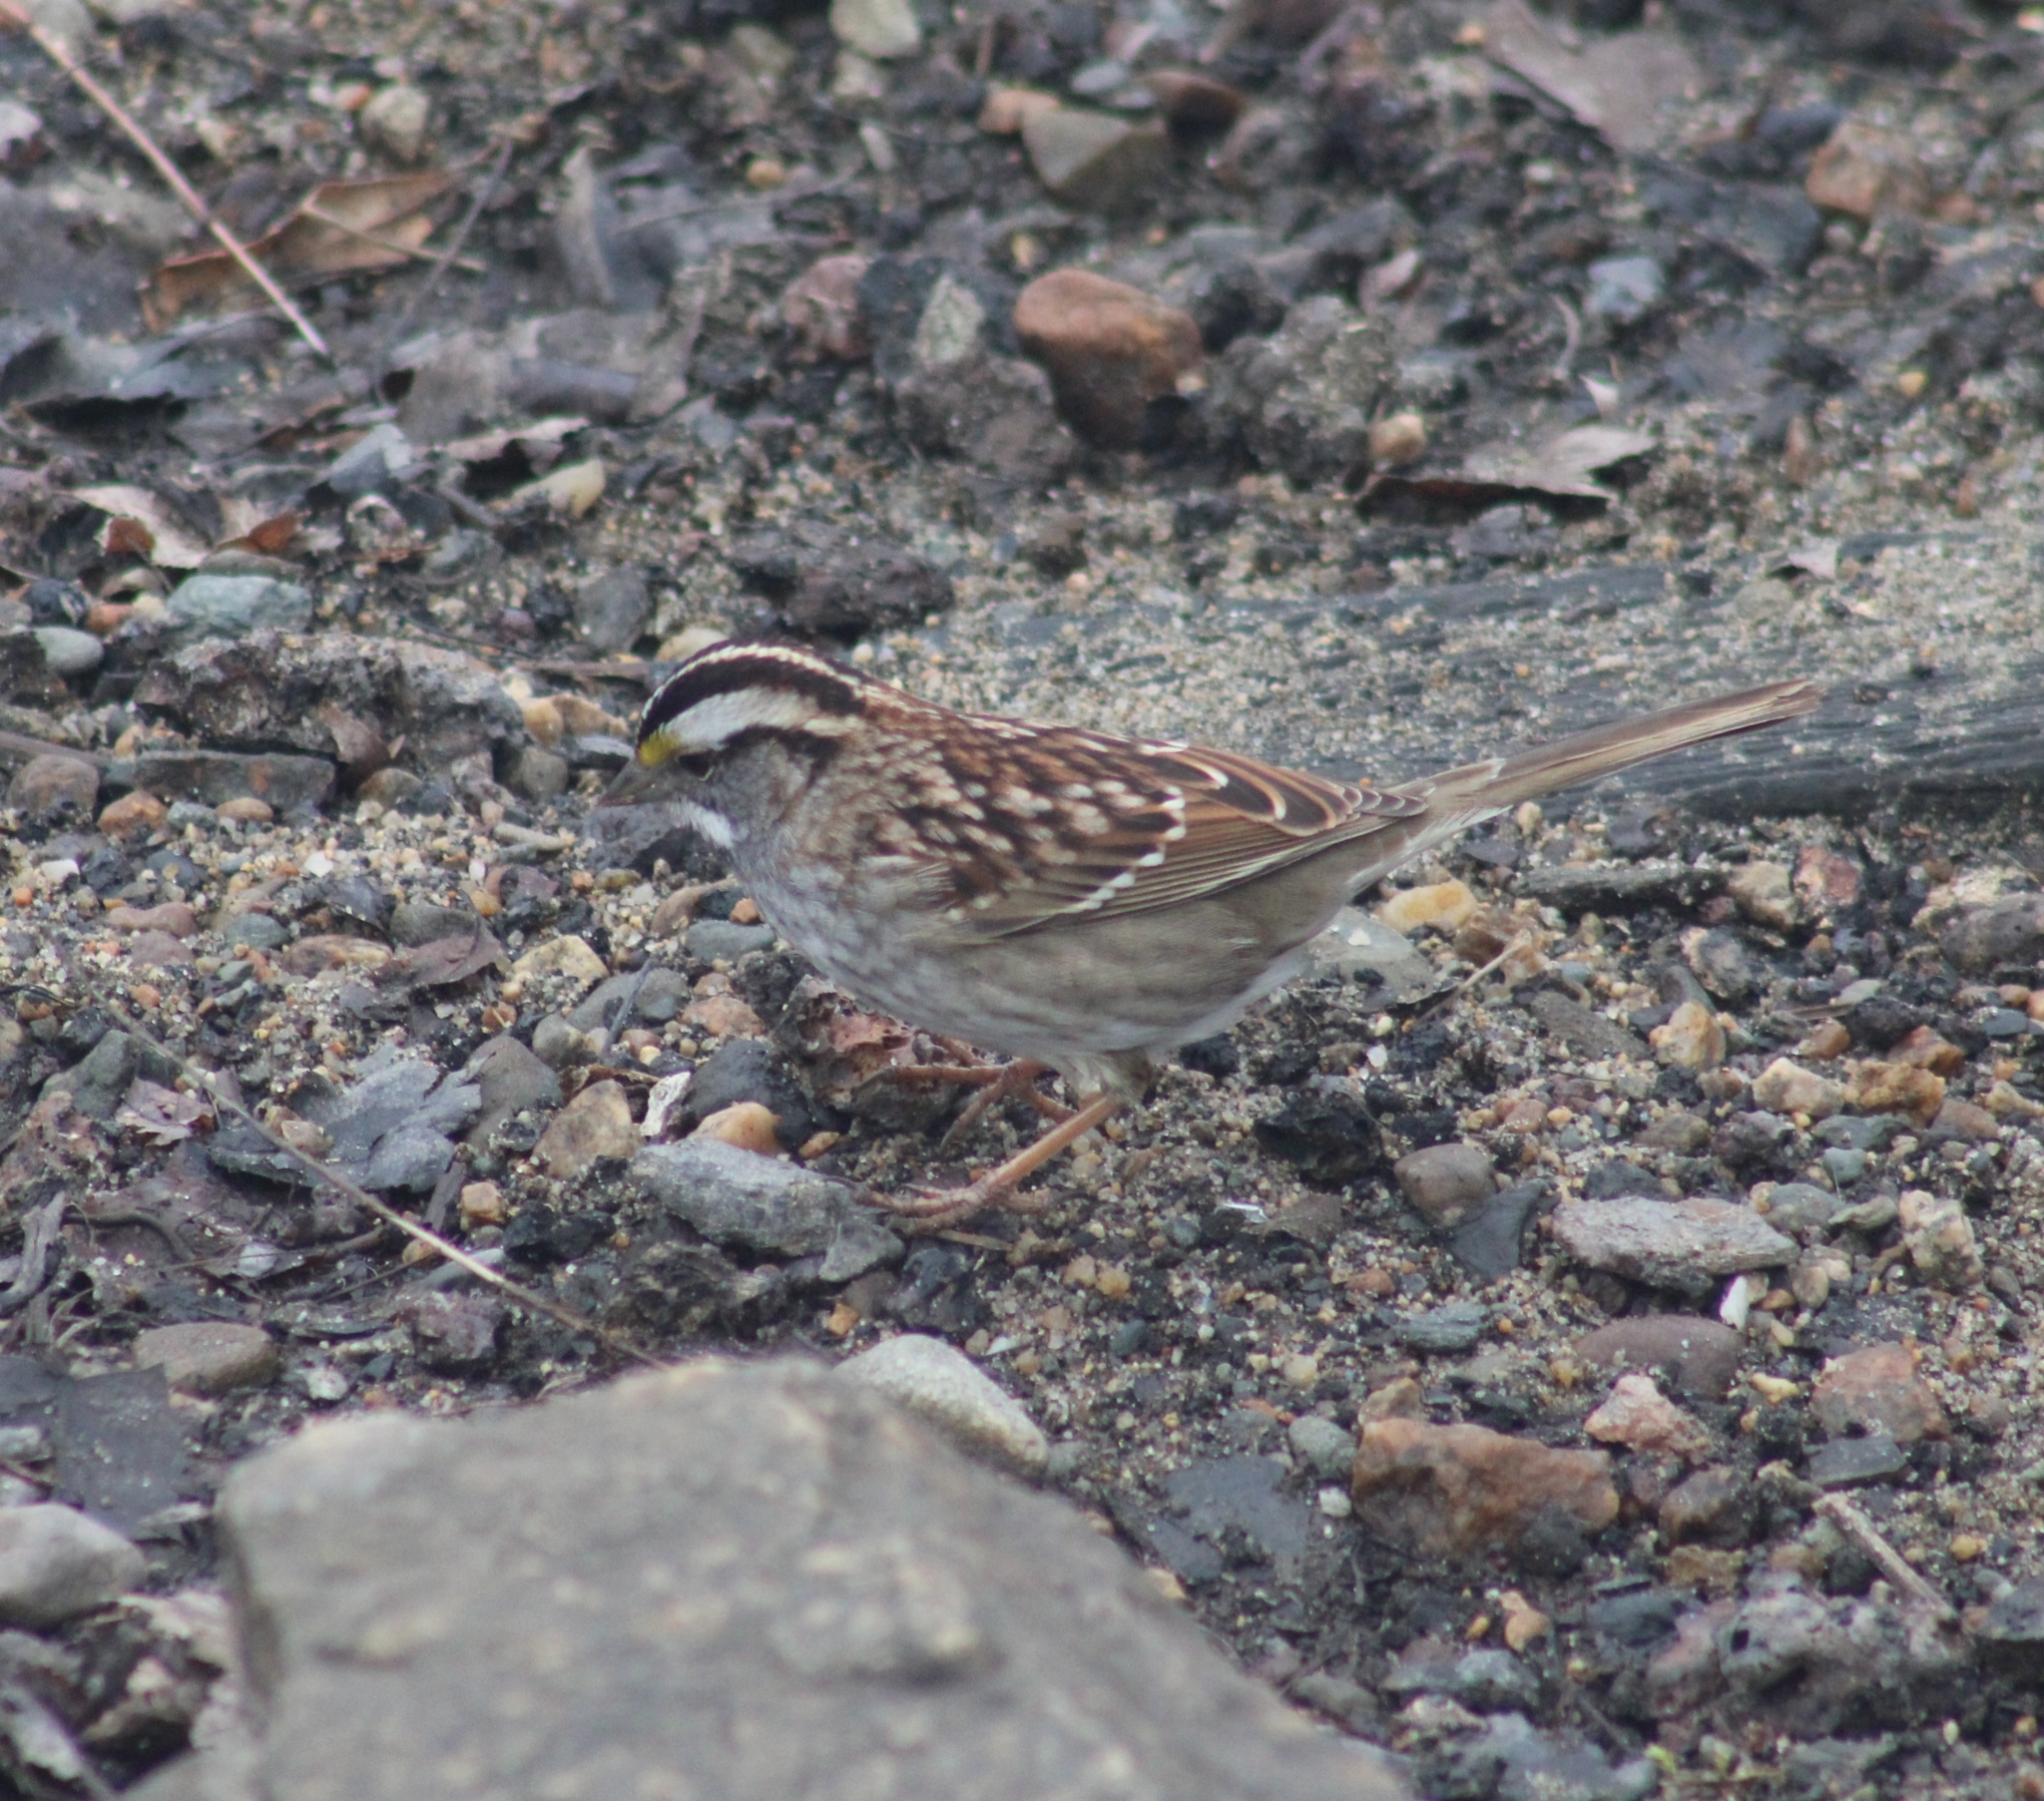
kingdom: Animalia
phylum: Chordata
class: Aves
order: Passeriformes
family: Passerellidae
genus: Zonotrichia
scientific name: Zonotrichia albicollis
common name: White-throated sparrow
